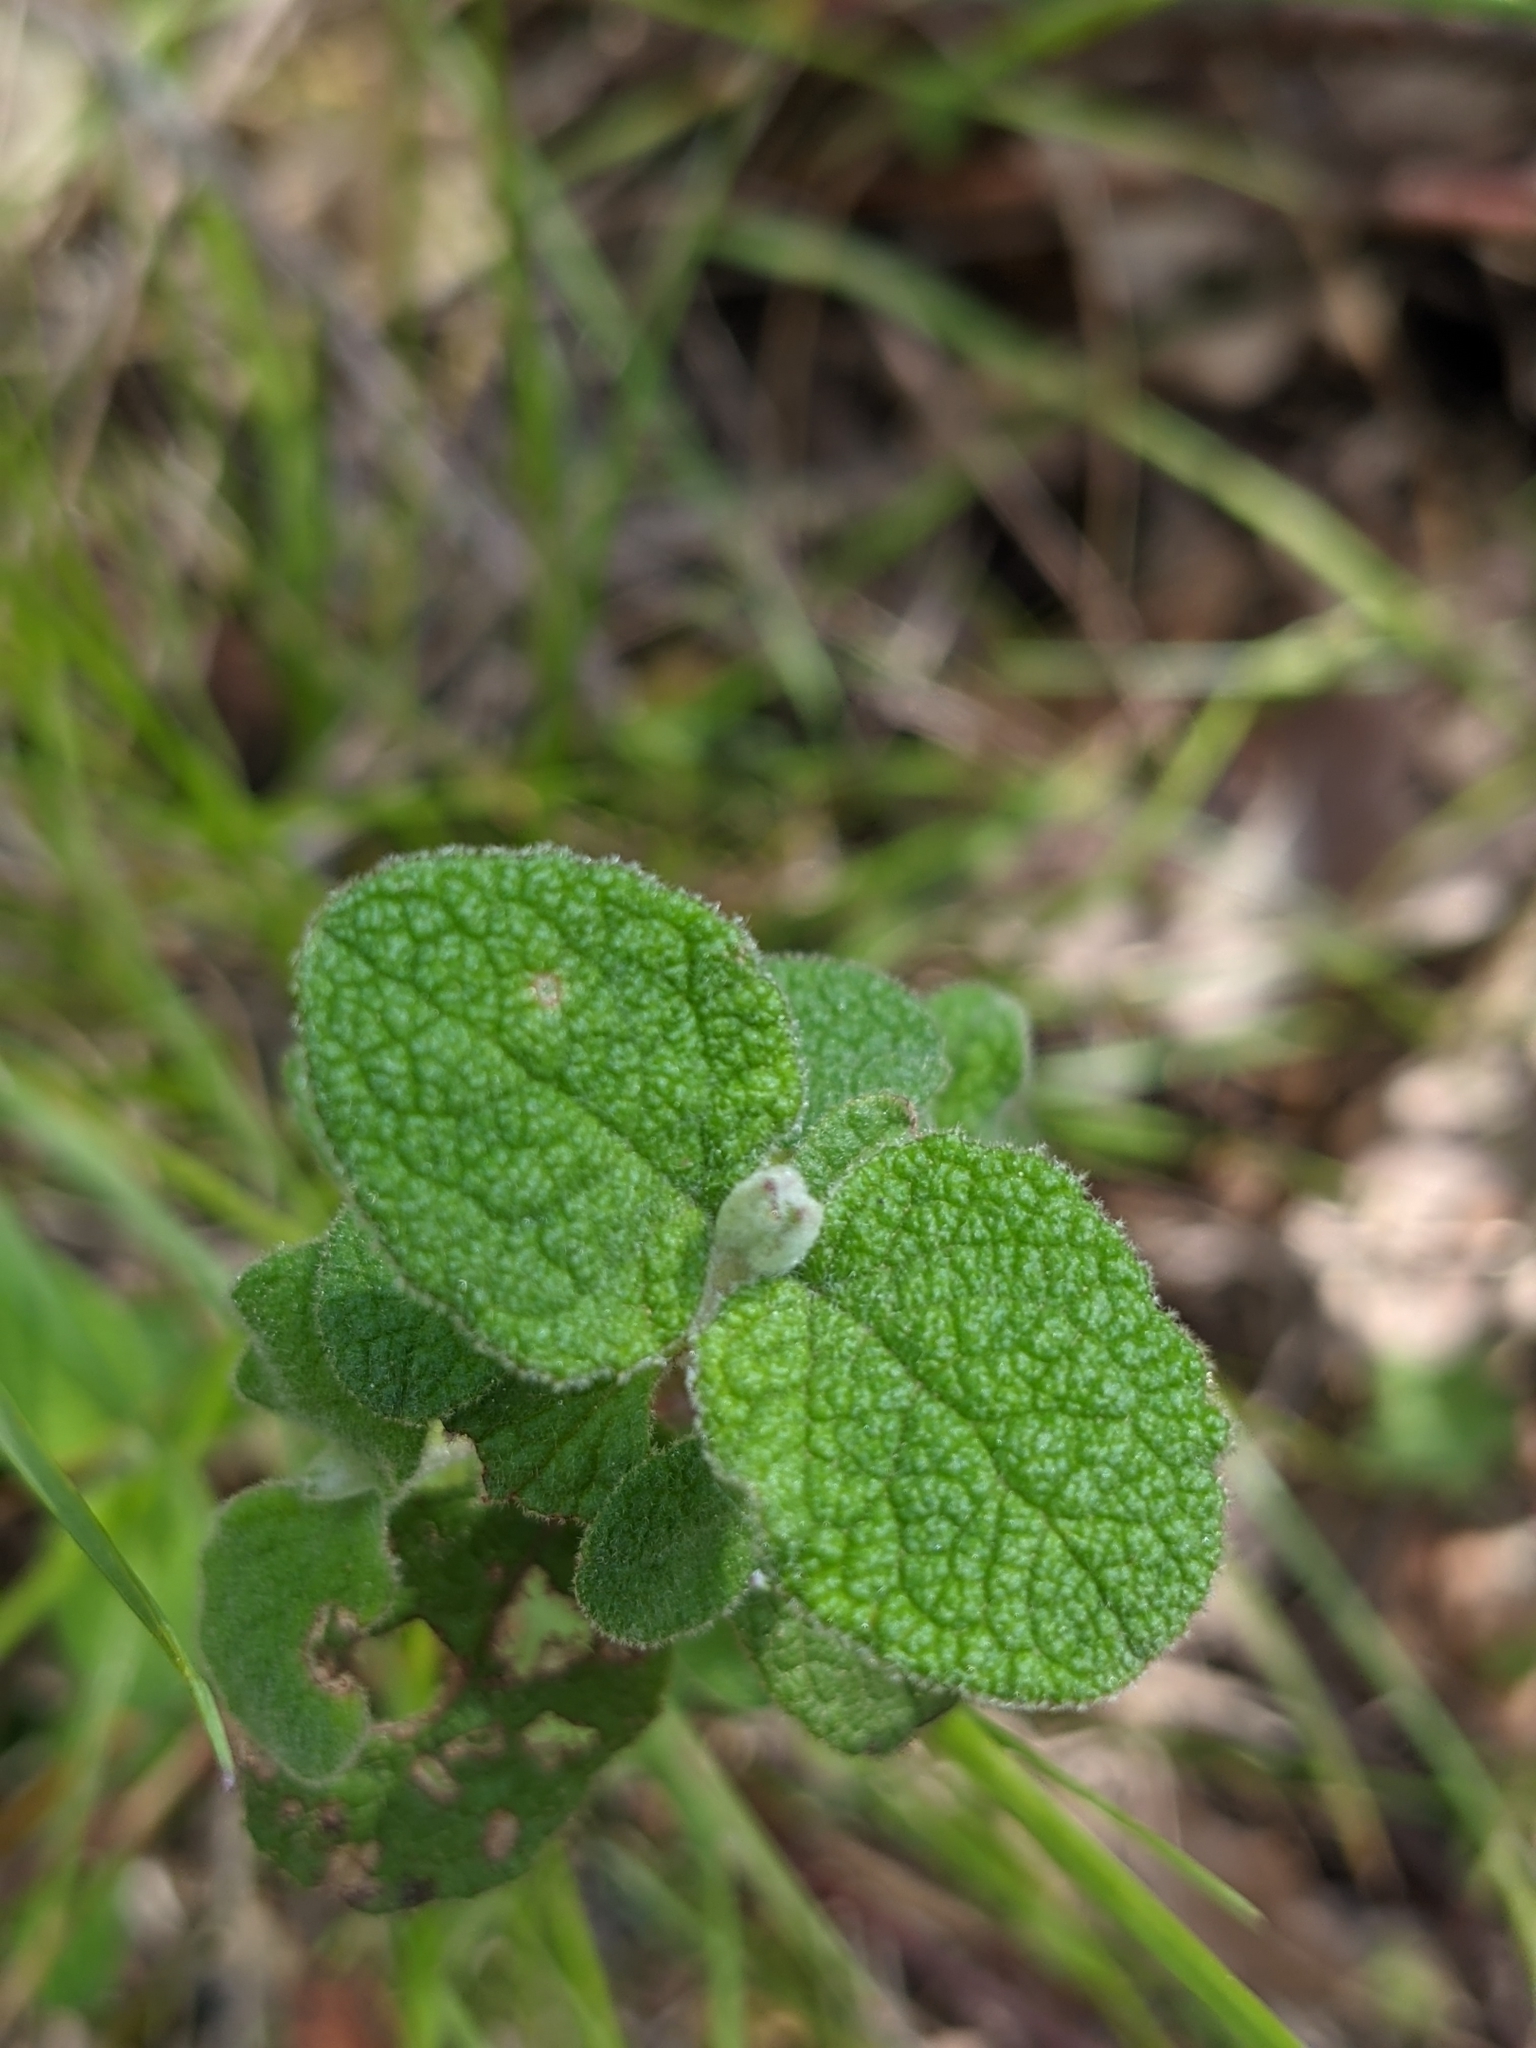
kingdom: Plantae
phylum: Tracheophyta
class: Magnoliopsida
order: Malvales
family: Cistaceae
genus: Cistus
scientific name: Cistus salviifolius
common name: Salvia cistus
